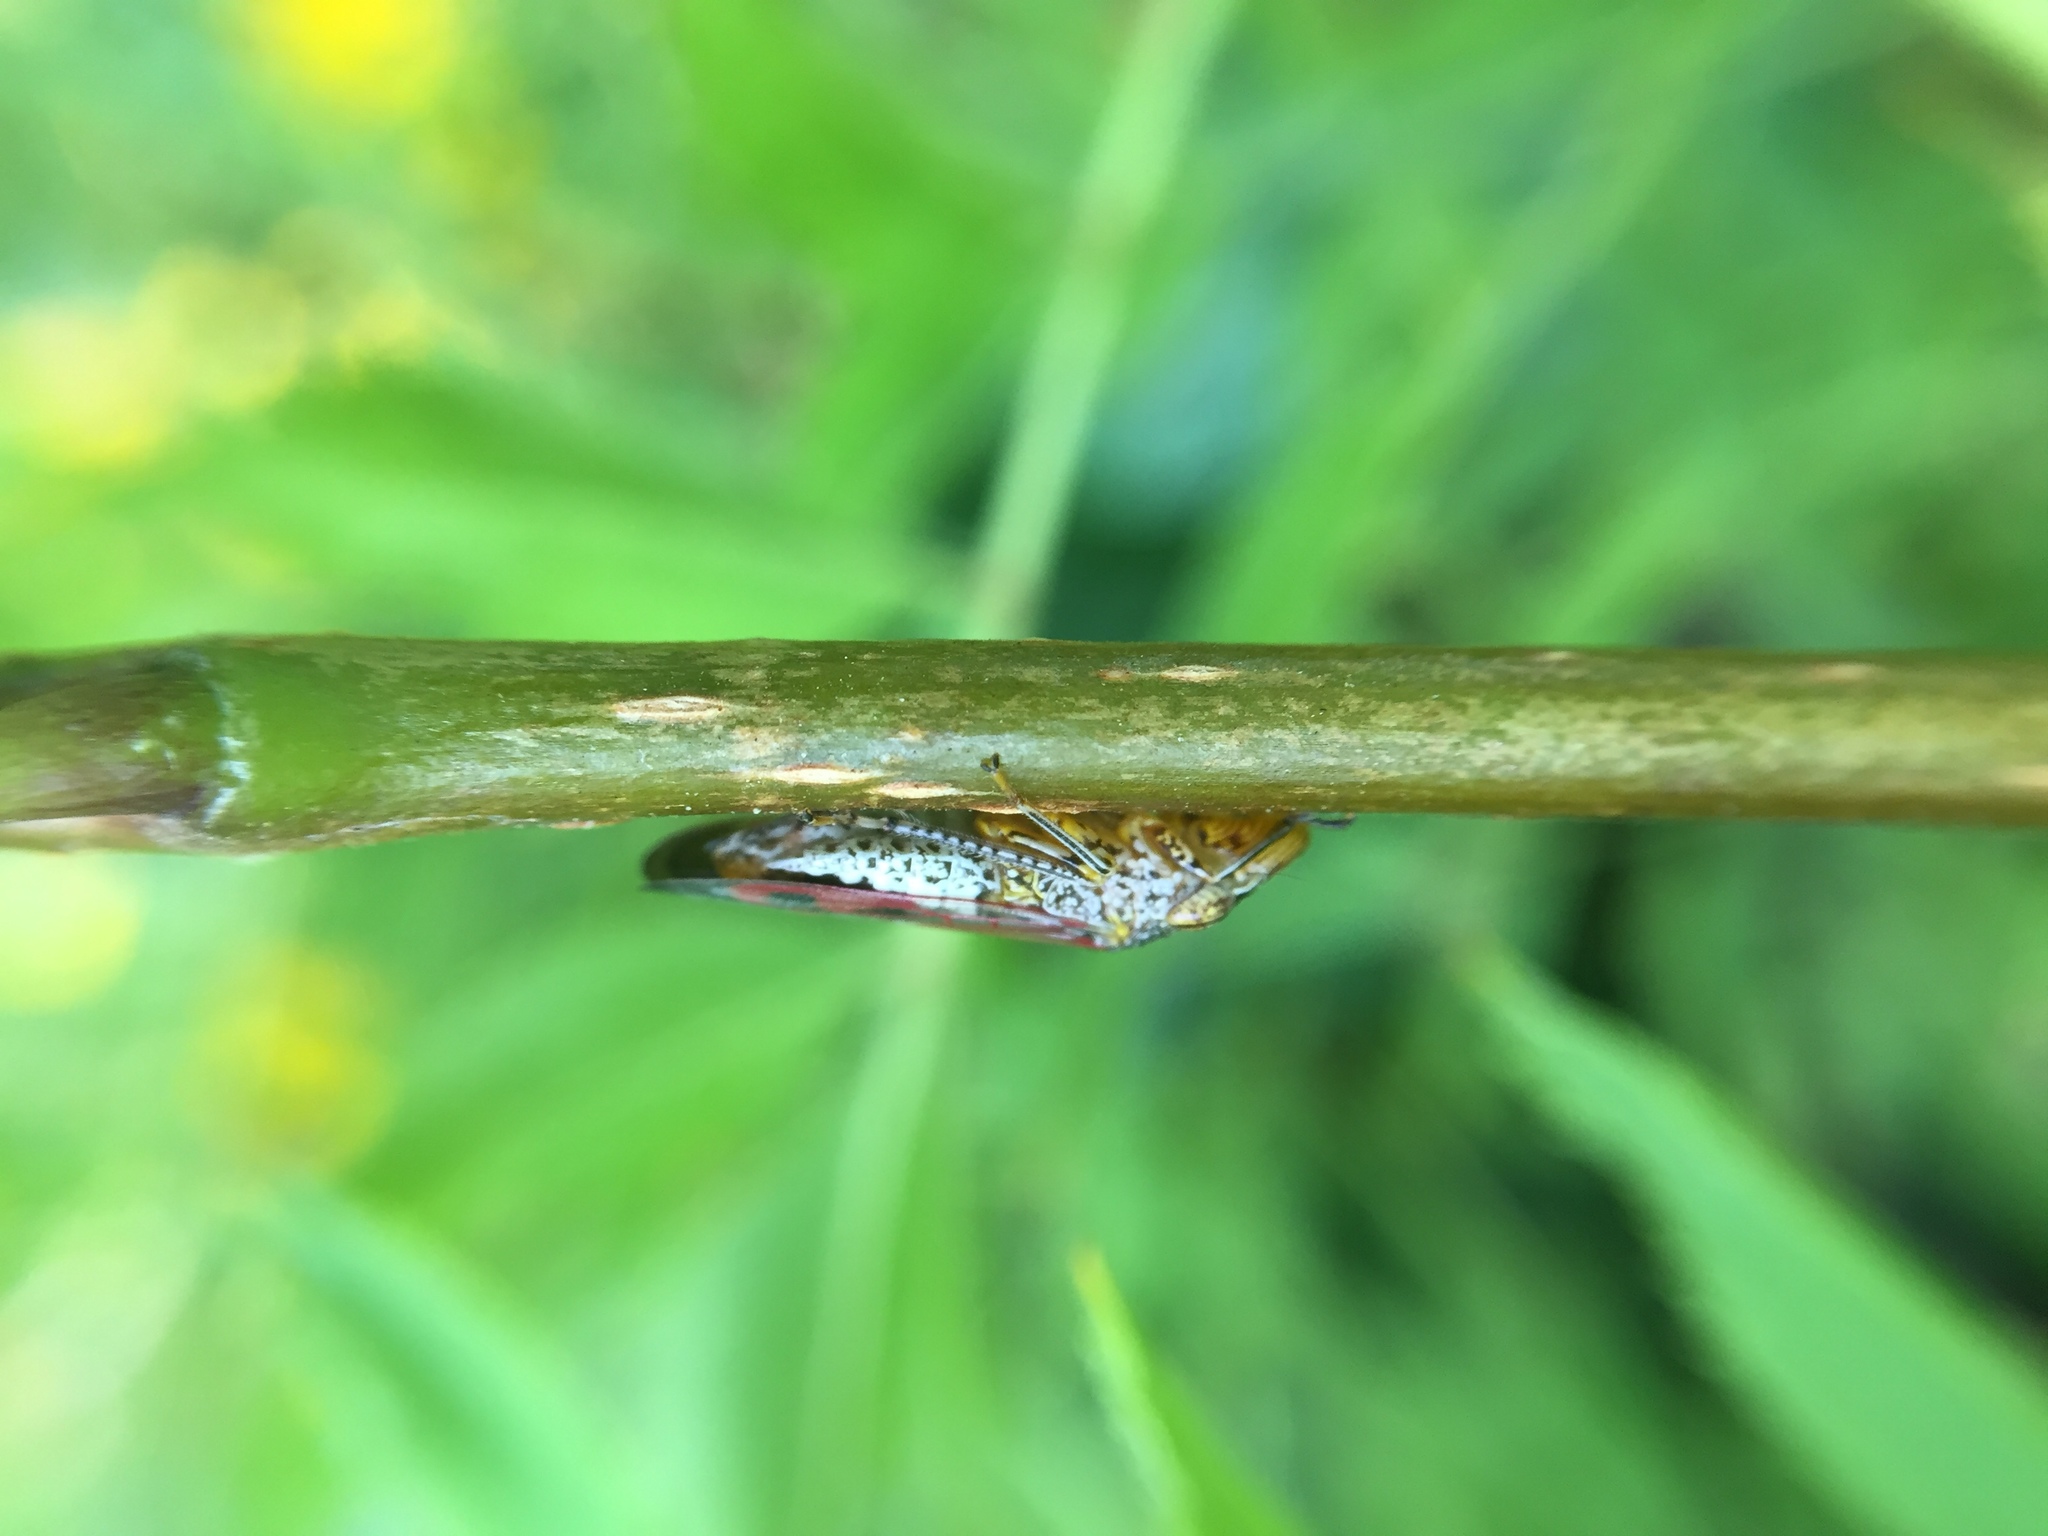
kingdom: Animalia
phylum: Arthropoda
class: Insecta
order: Hemiptera
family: Cicadellidae
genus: Homalodisca
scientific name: Homalodisca vitripennis
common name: Glassy-winged sharpshooter
